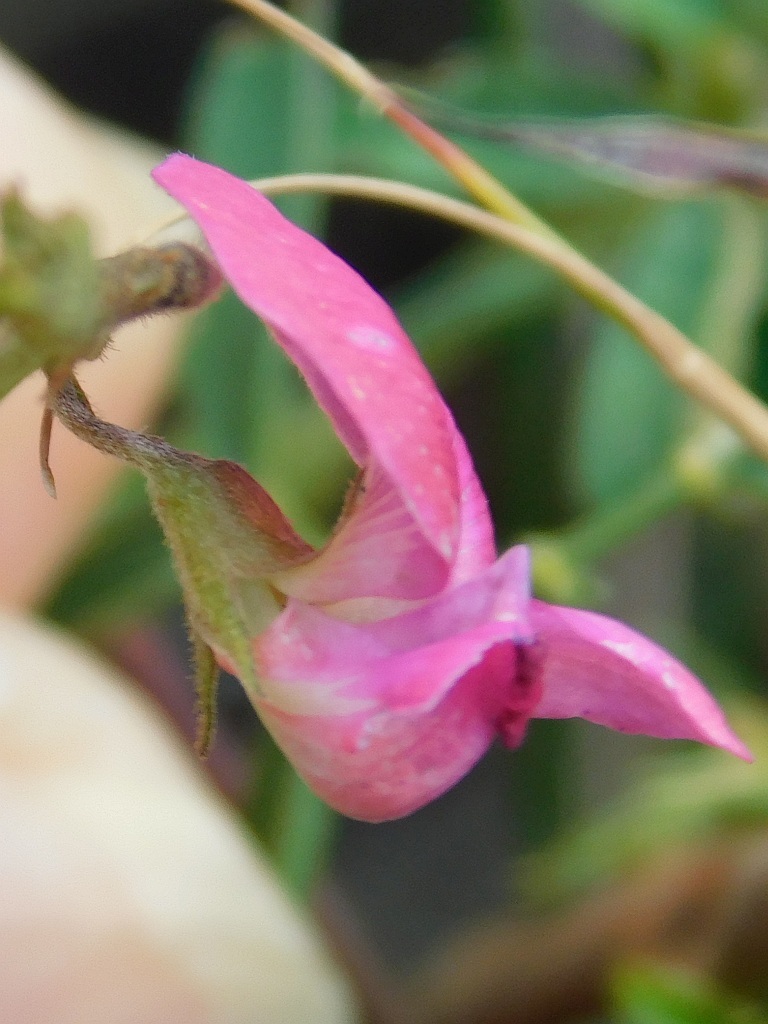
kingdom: Plantae
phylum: Tracheophyta
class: Magnoliopsida
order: Fabales
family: Fabaceae
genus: Tephrosia
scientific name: Tephrosia capensis
